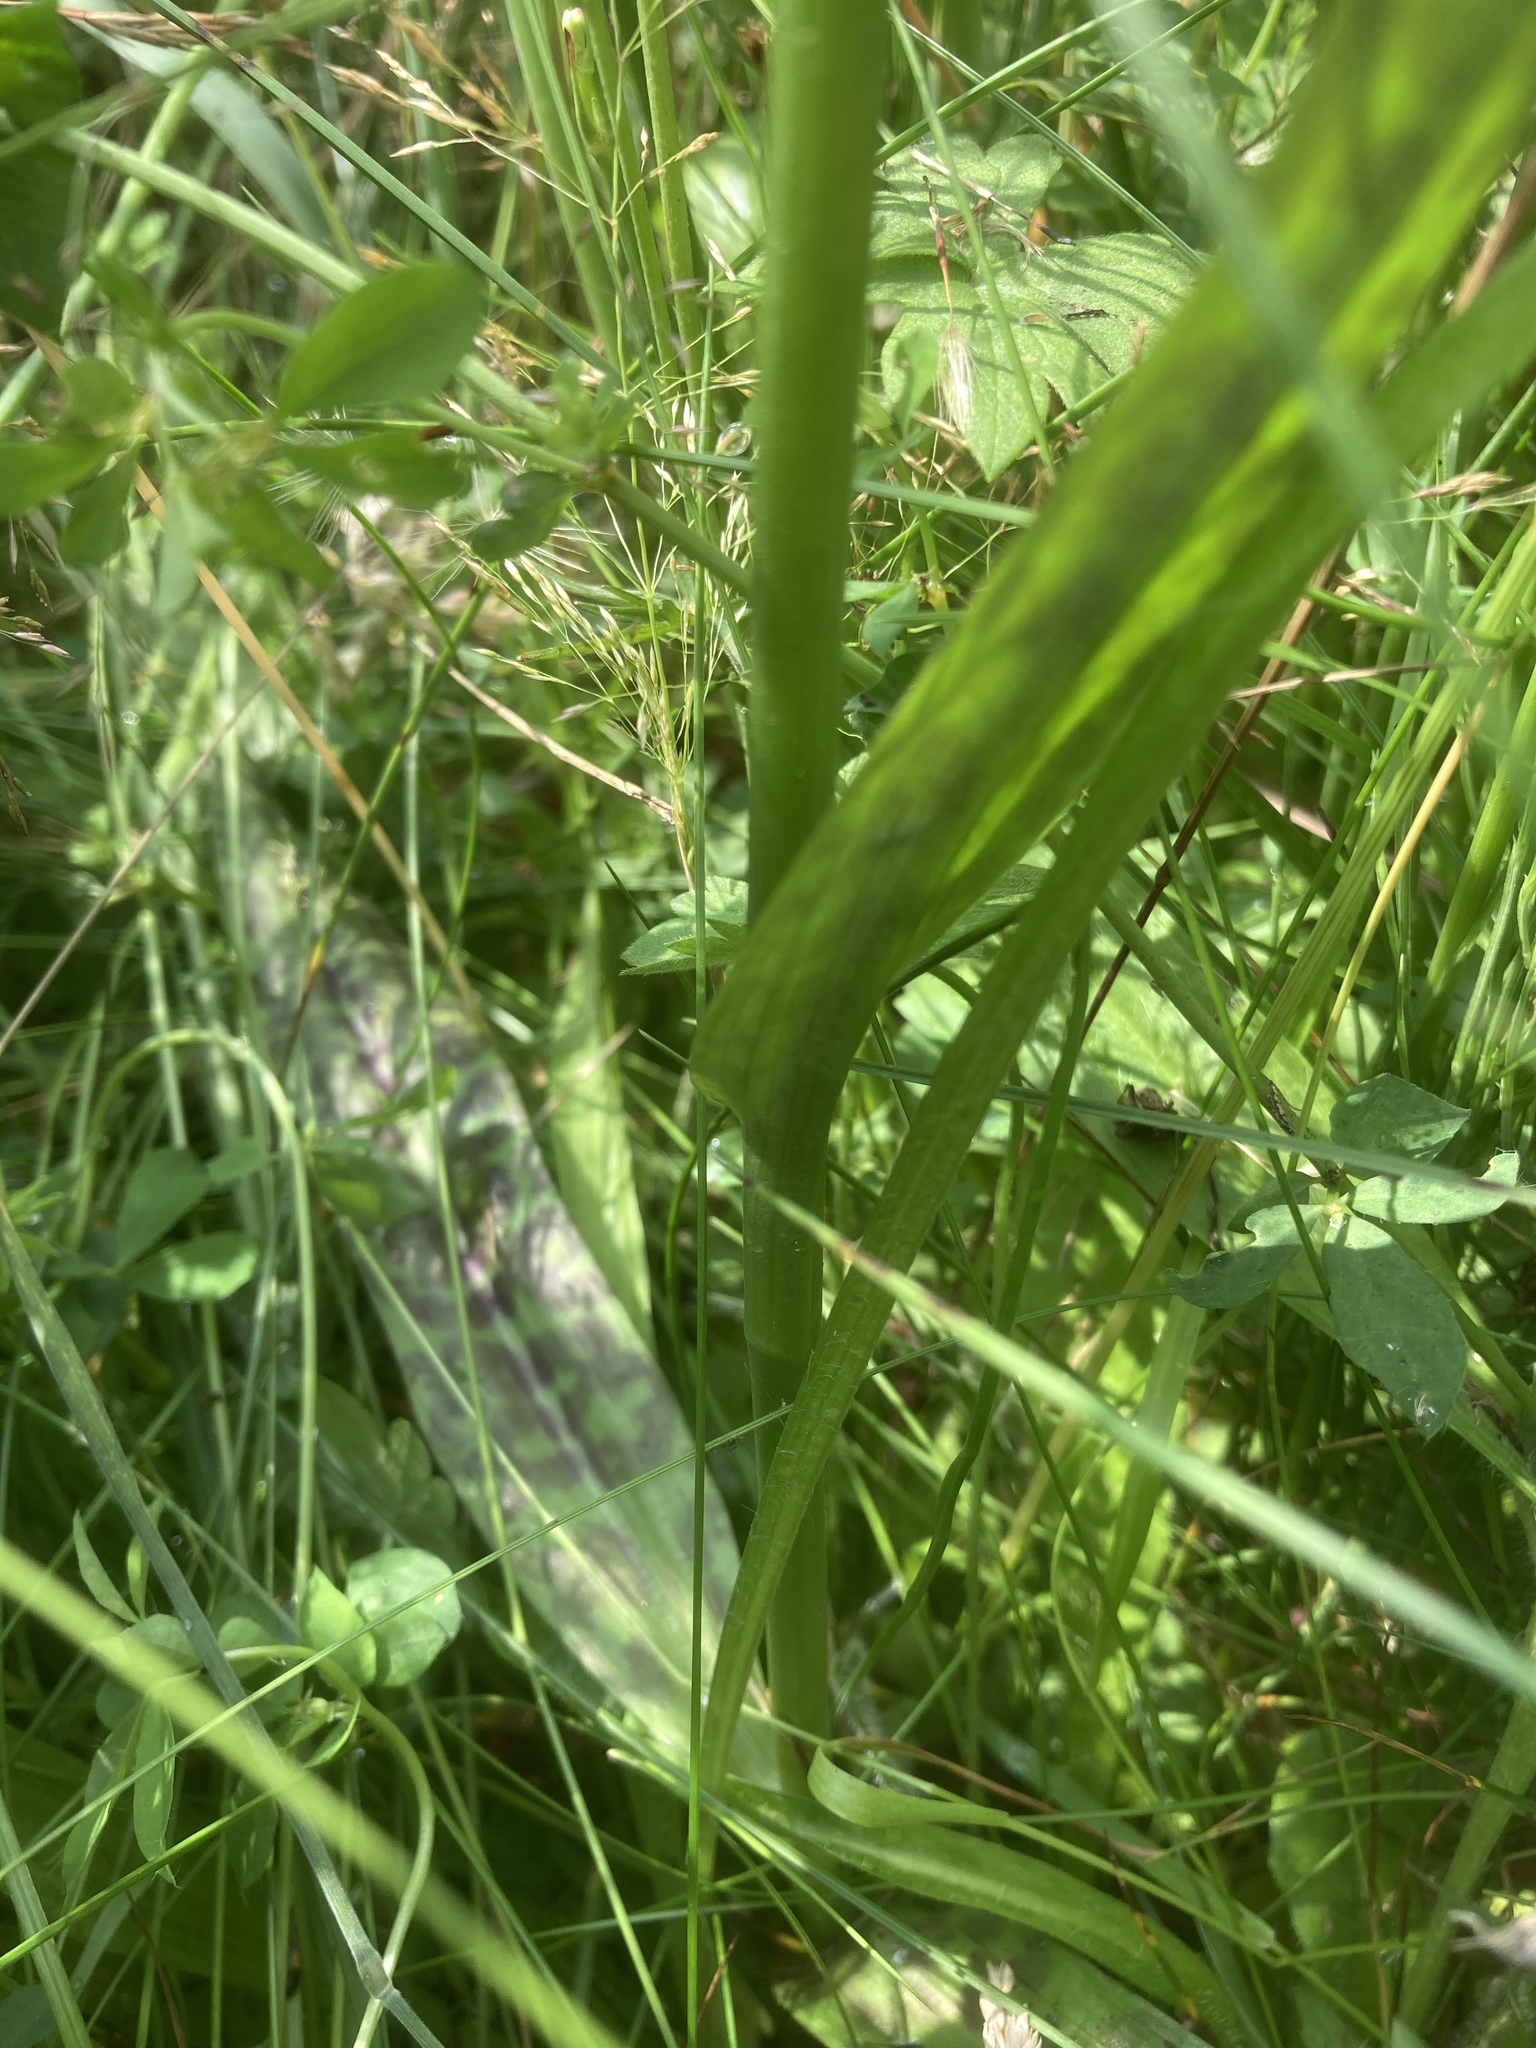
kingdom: Plantae
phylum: Tracheophyta
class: Liliopsida
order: Asparagales
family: Orchidaceae
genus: Dactylorhiza
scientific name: Dactylorhiza majalis
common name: Marsh orchid
